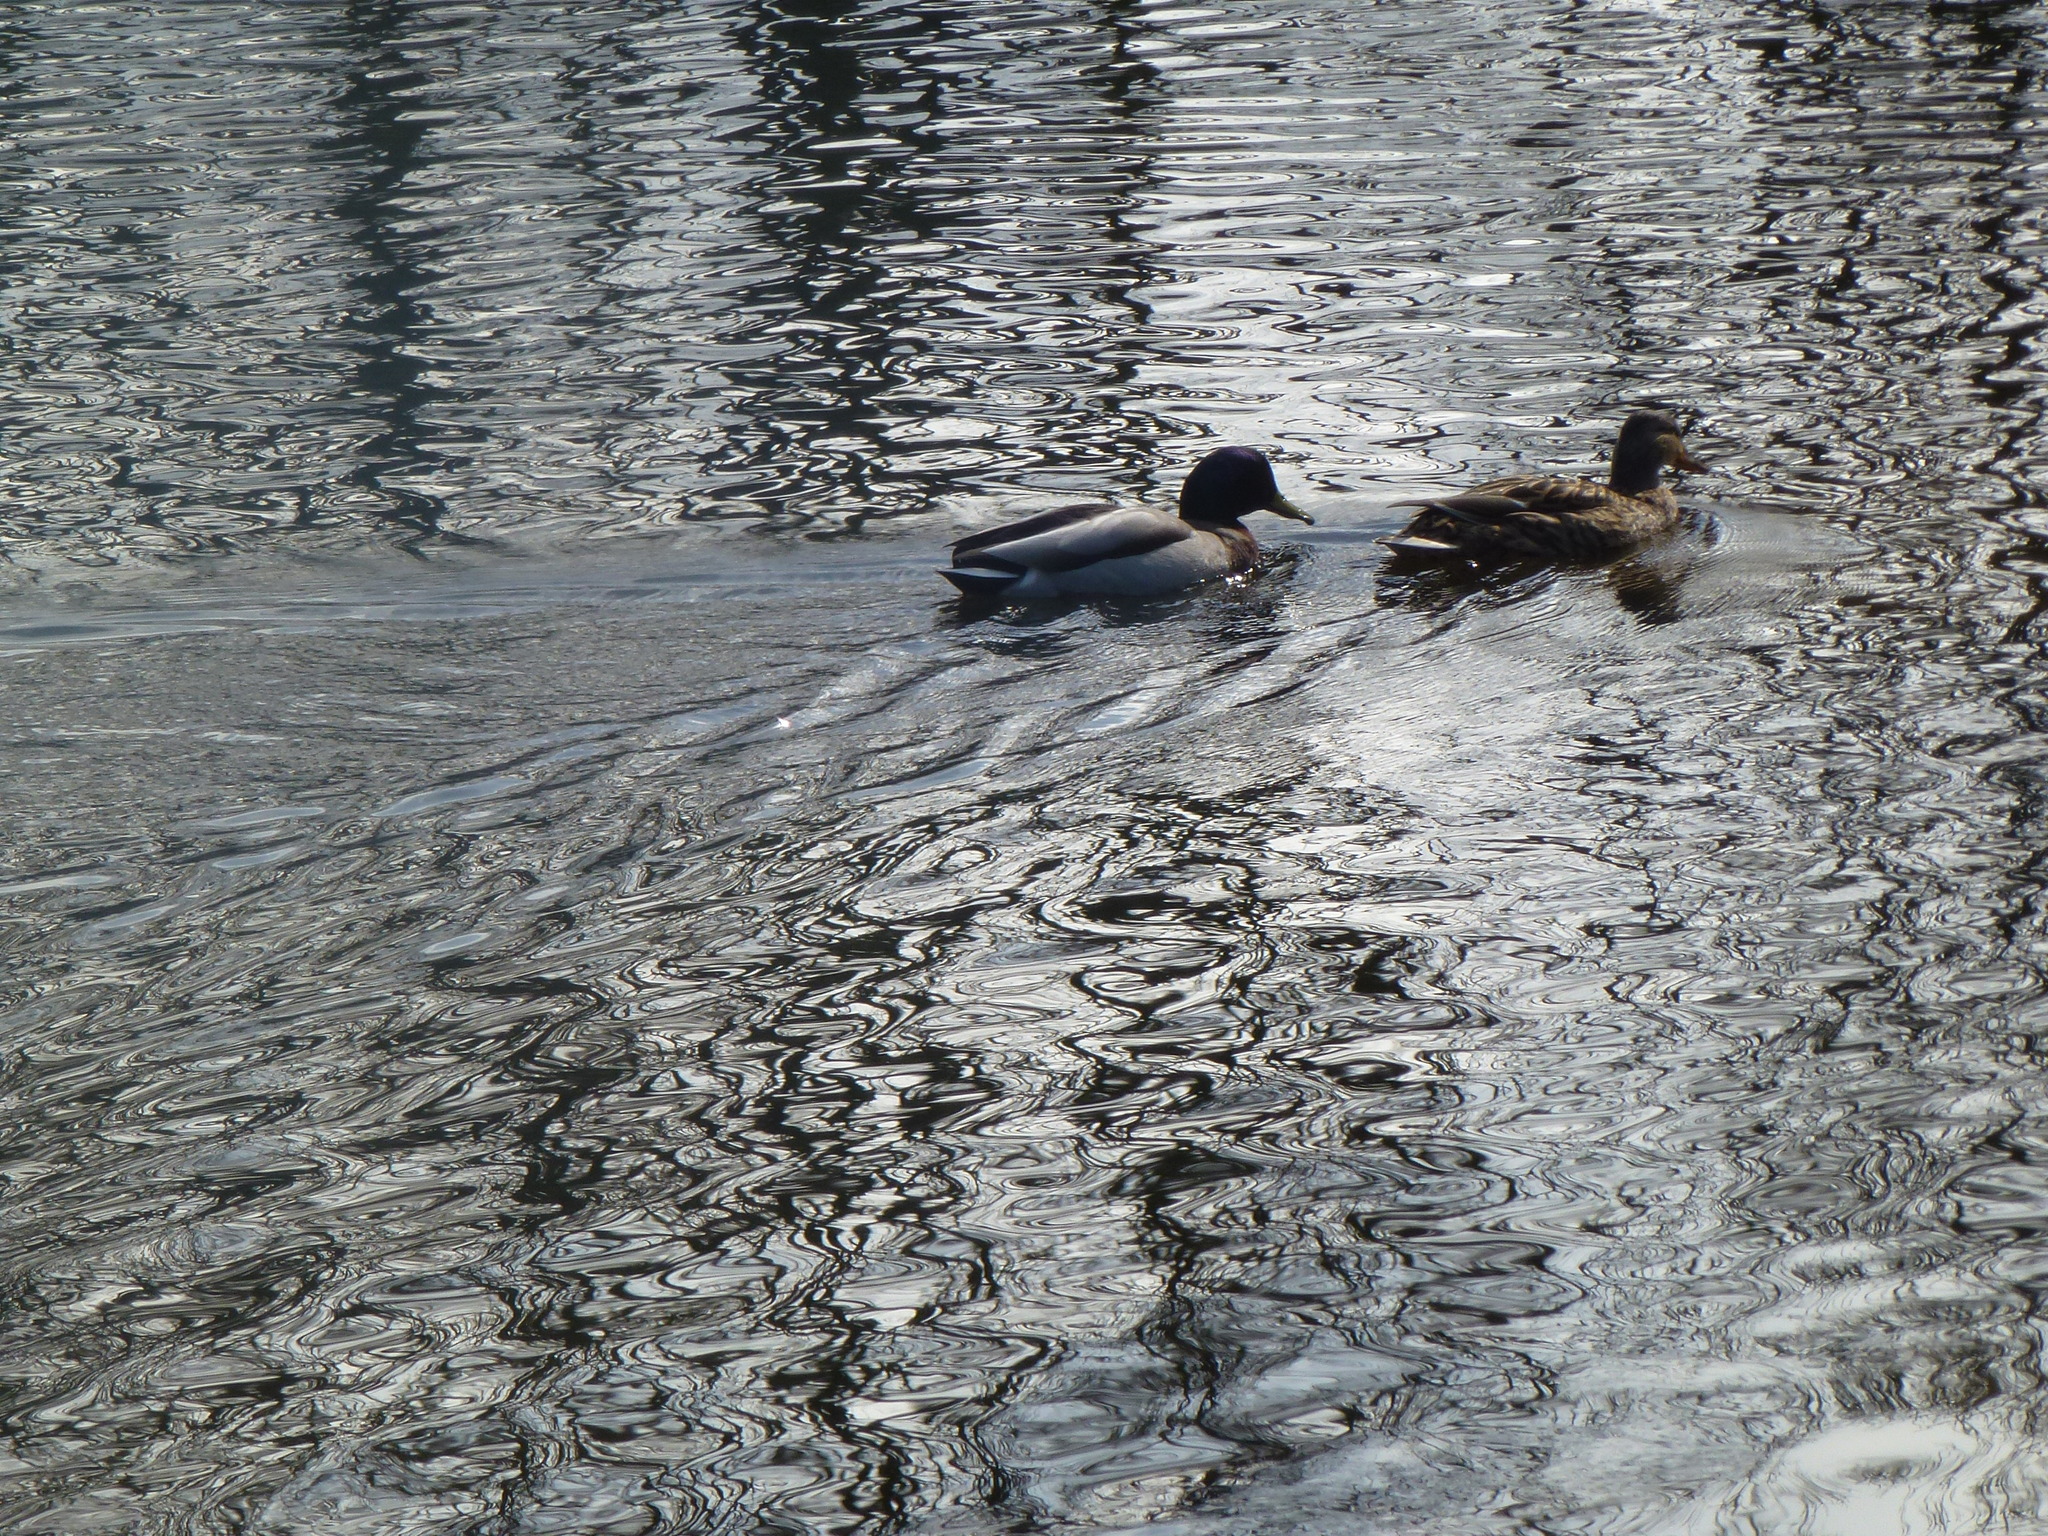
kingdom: Animalia
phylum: Chordata
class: Aves
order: Anseriformes
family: Anatidae
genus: Anas
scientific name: Anas platyrhynchos
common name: Mallard
